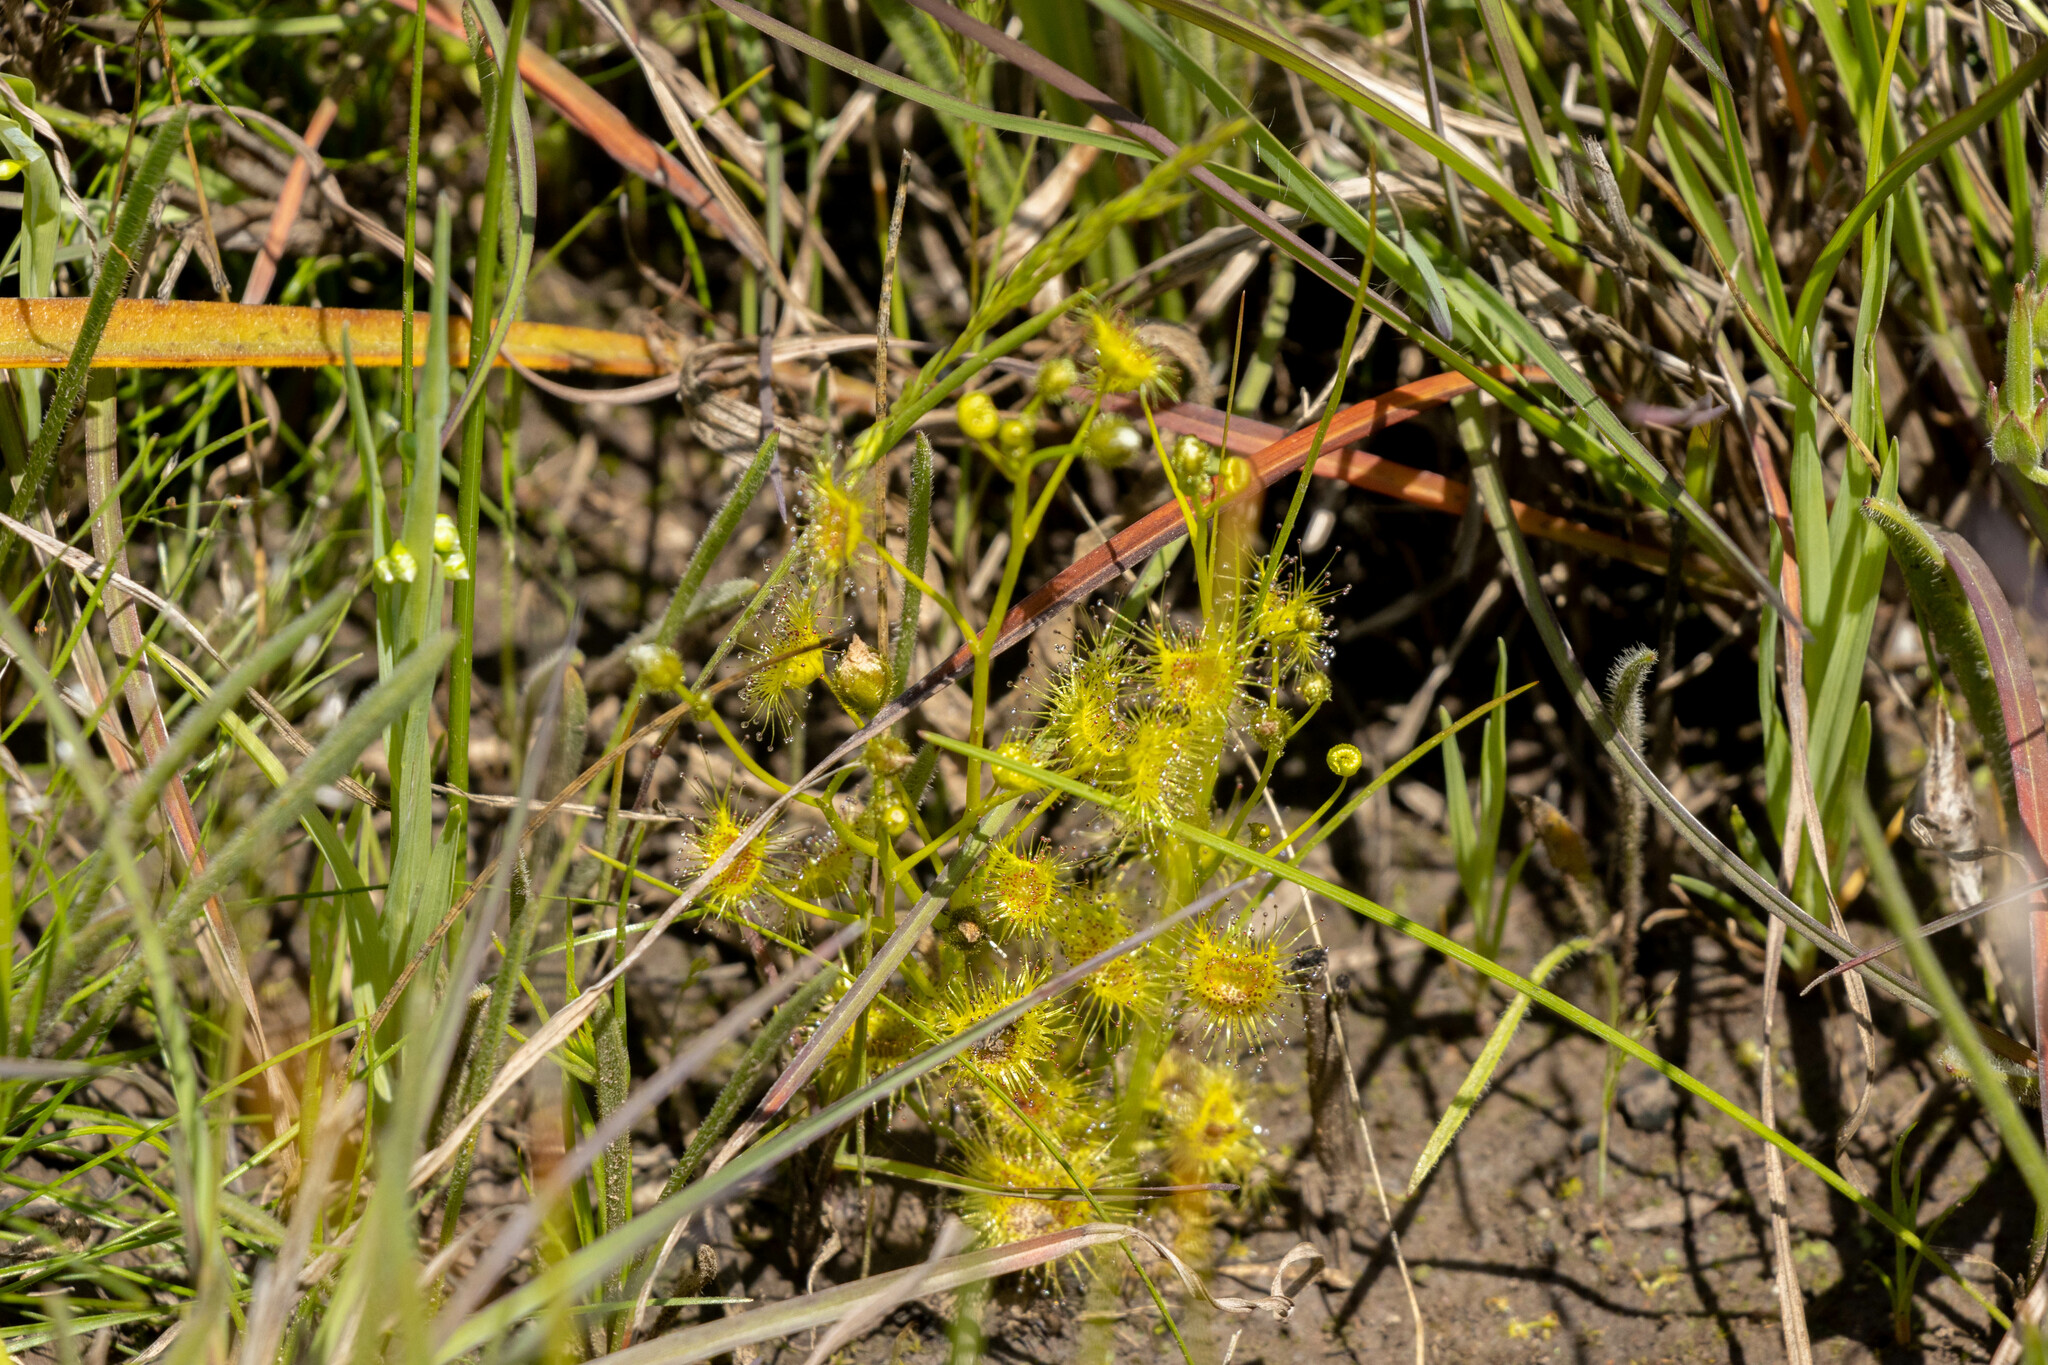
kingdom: Plantae
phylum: Tracheophyta
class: Magnoliopsida
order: Caryophyllales
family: Droseraceae
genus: Drosera
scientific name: Drosera hookeri
